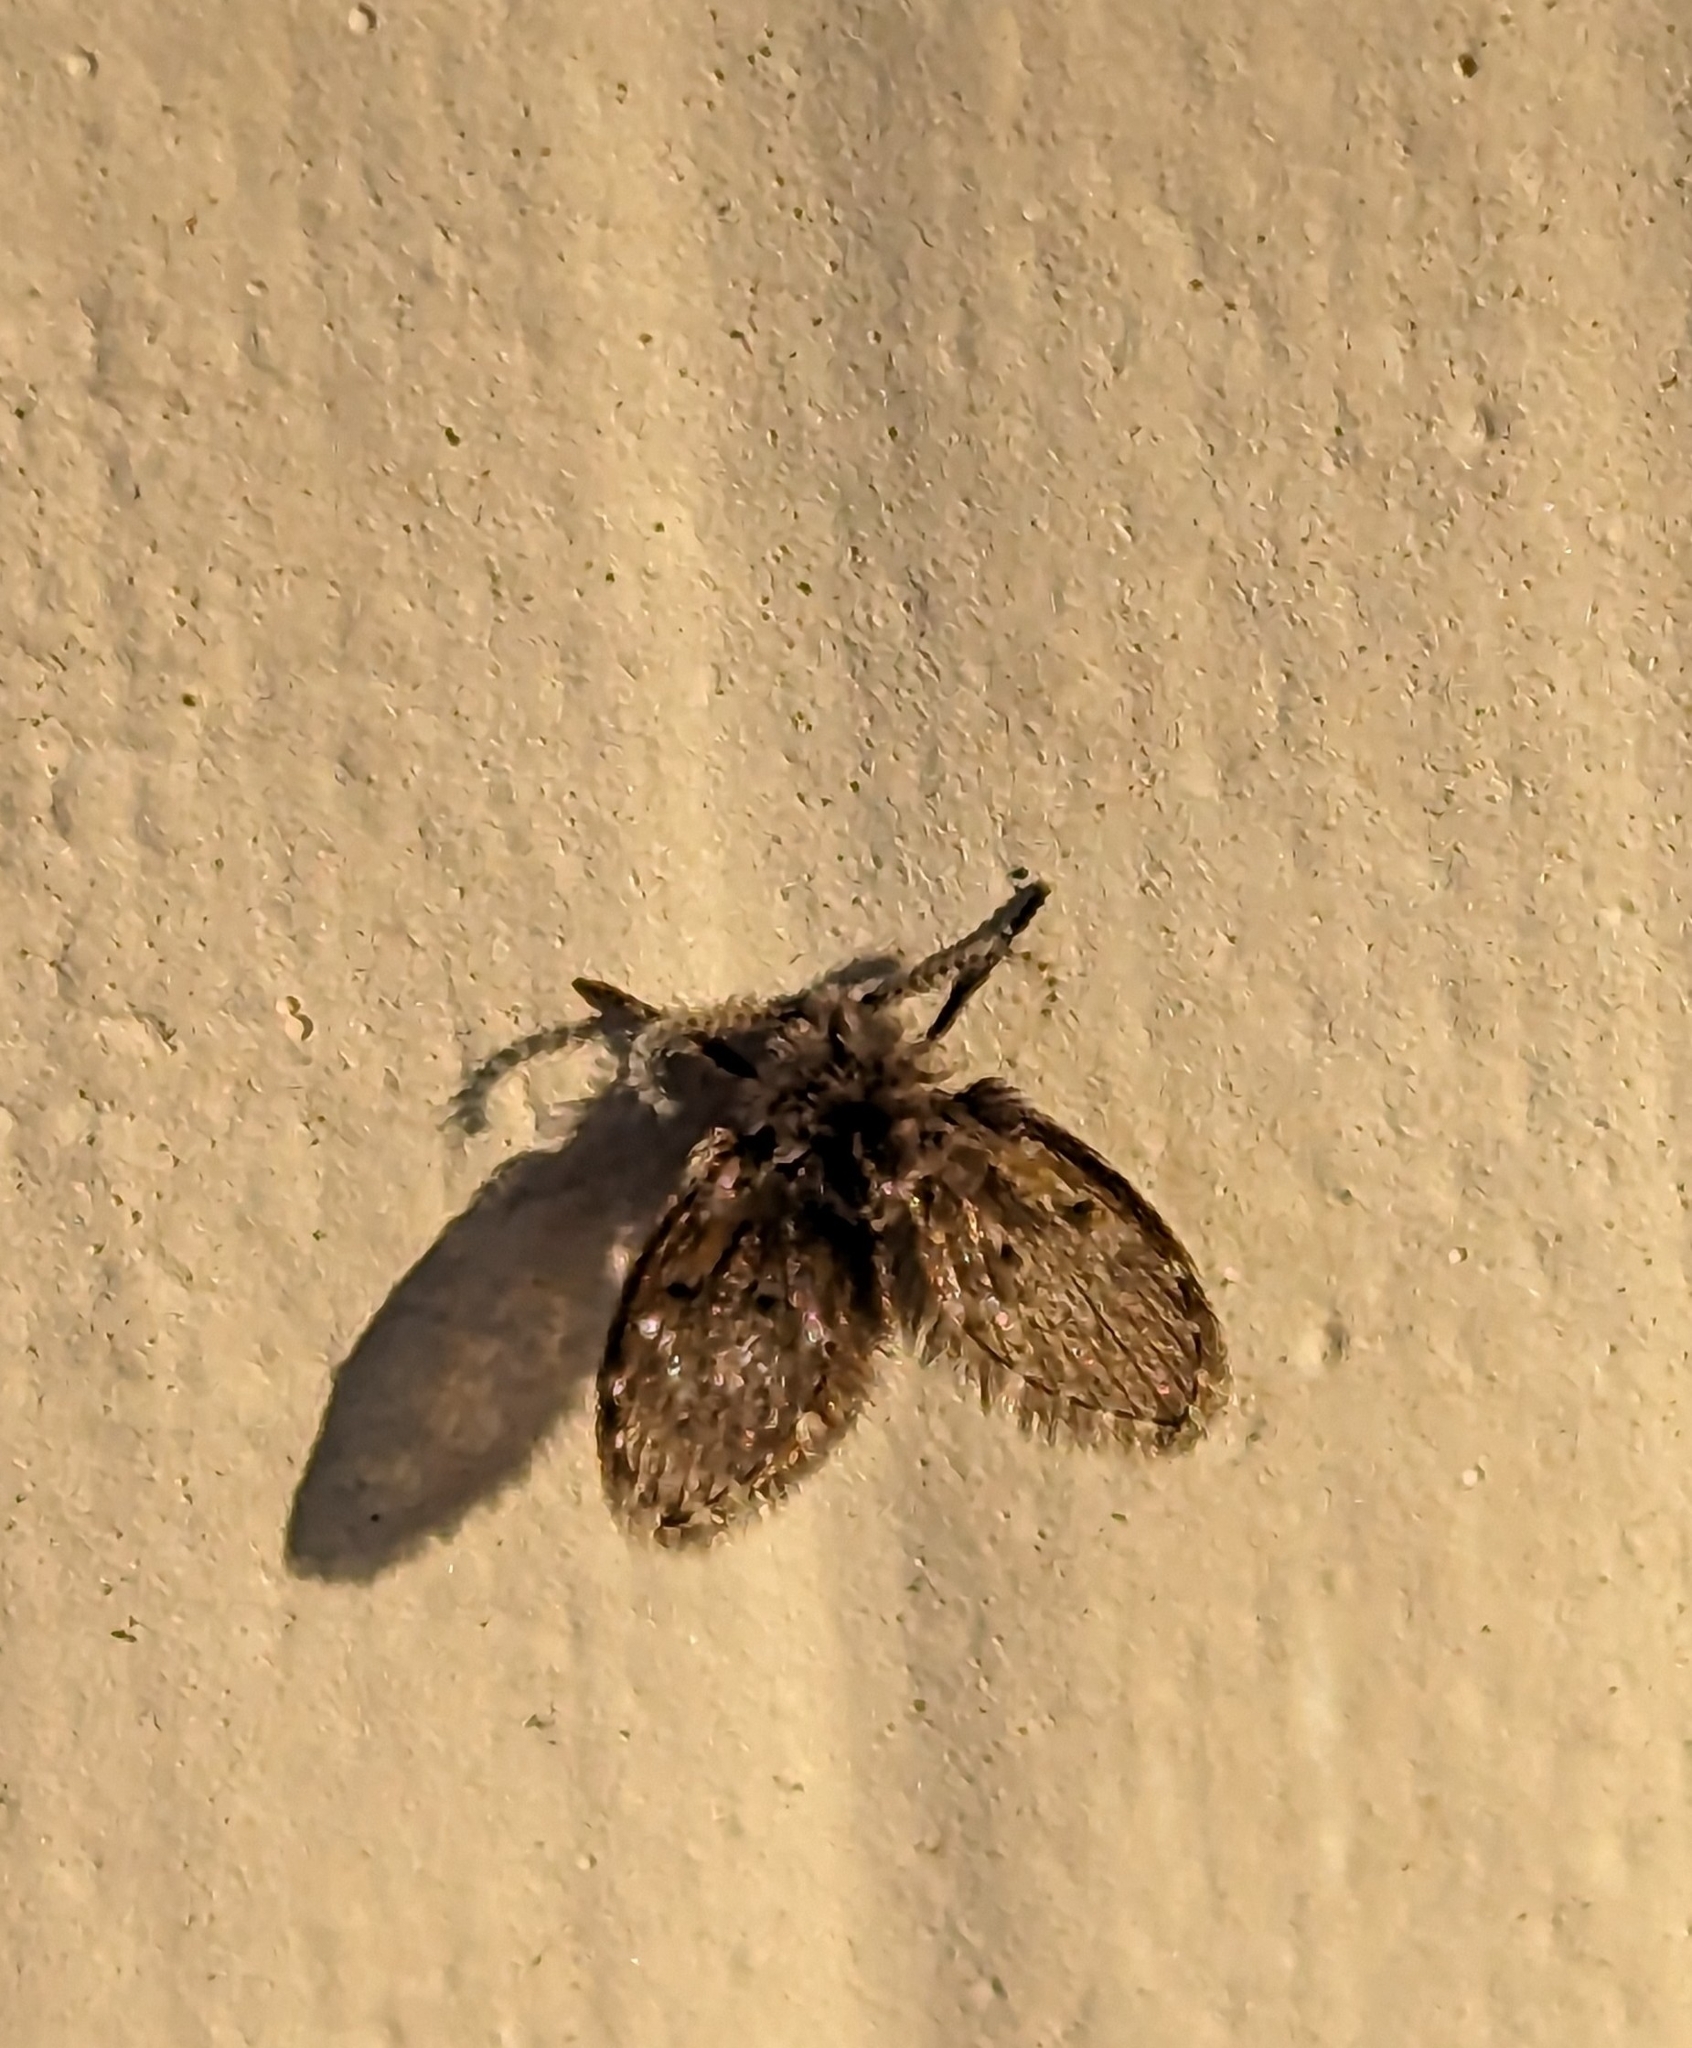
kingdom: Animalia
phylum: Arthropoda
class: Insecta
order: Diptera
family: Psychodidae
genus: Clogmia
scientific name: Clogmia albipunctatus
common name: White-spotted moth fly
